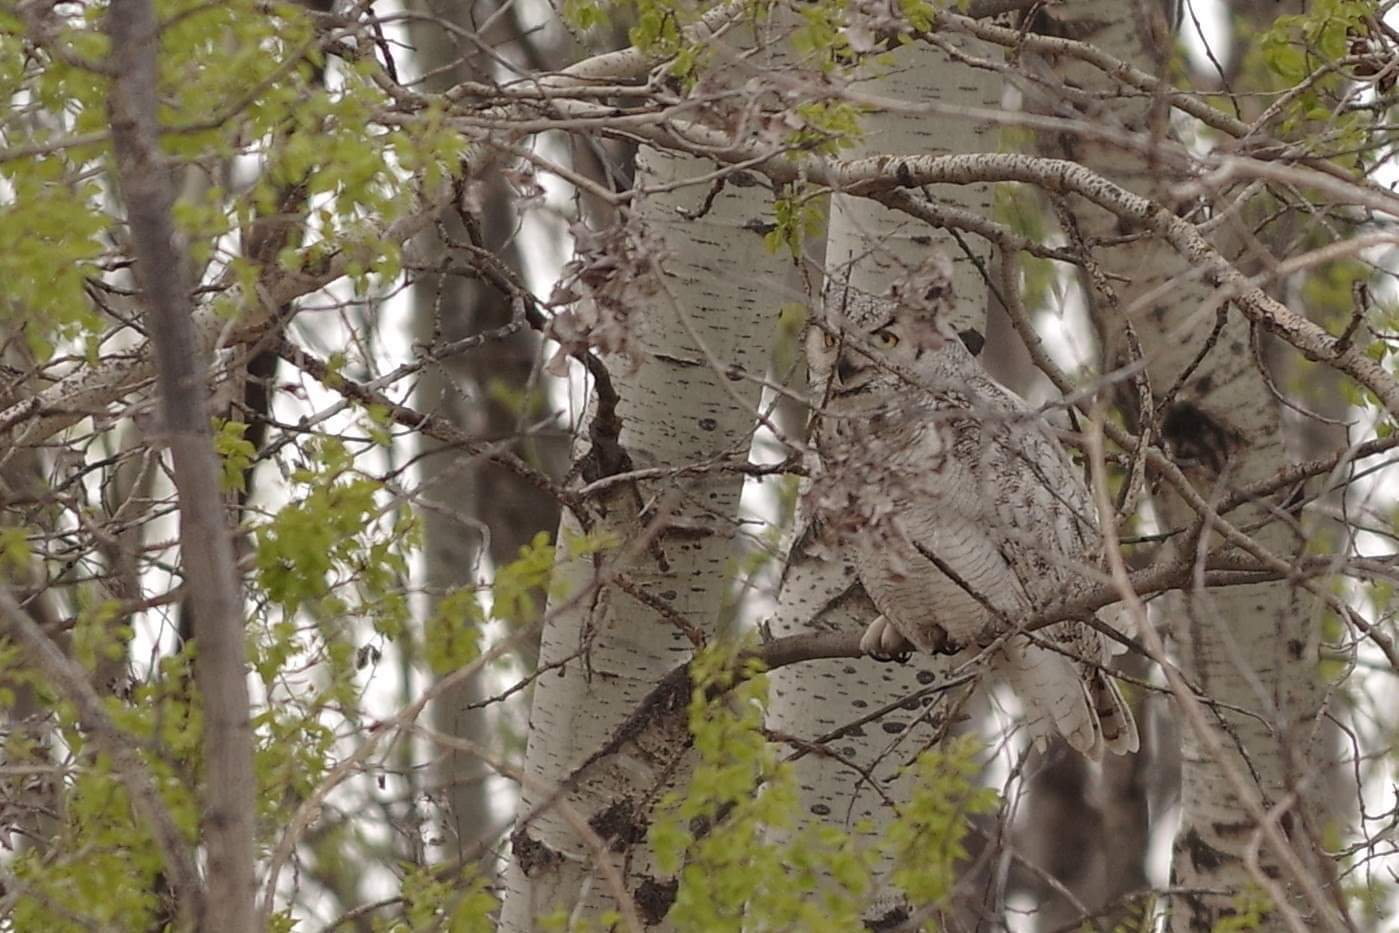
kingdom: Animalia
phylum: Chordata
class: Aves
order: Strigiformes
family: Strigidae
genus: Bubo
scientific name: Bubo virginianus
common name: Great horned owl
